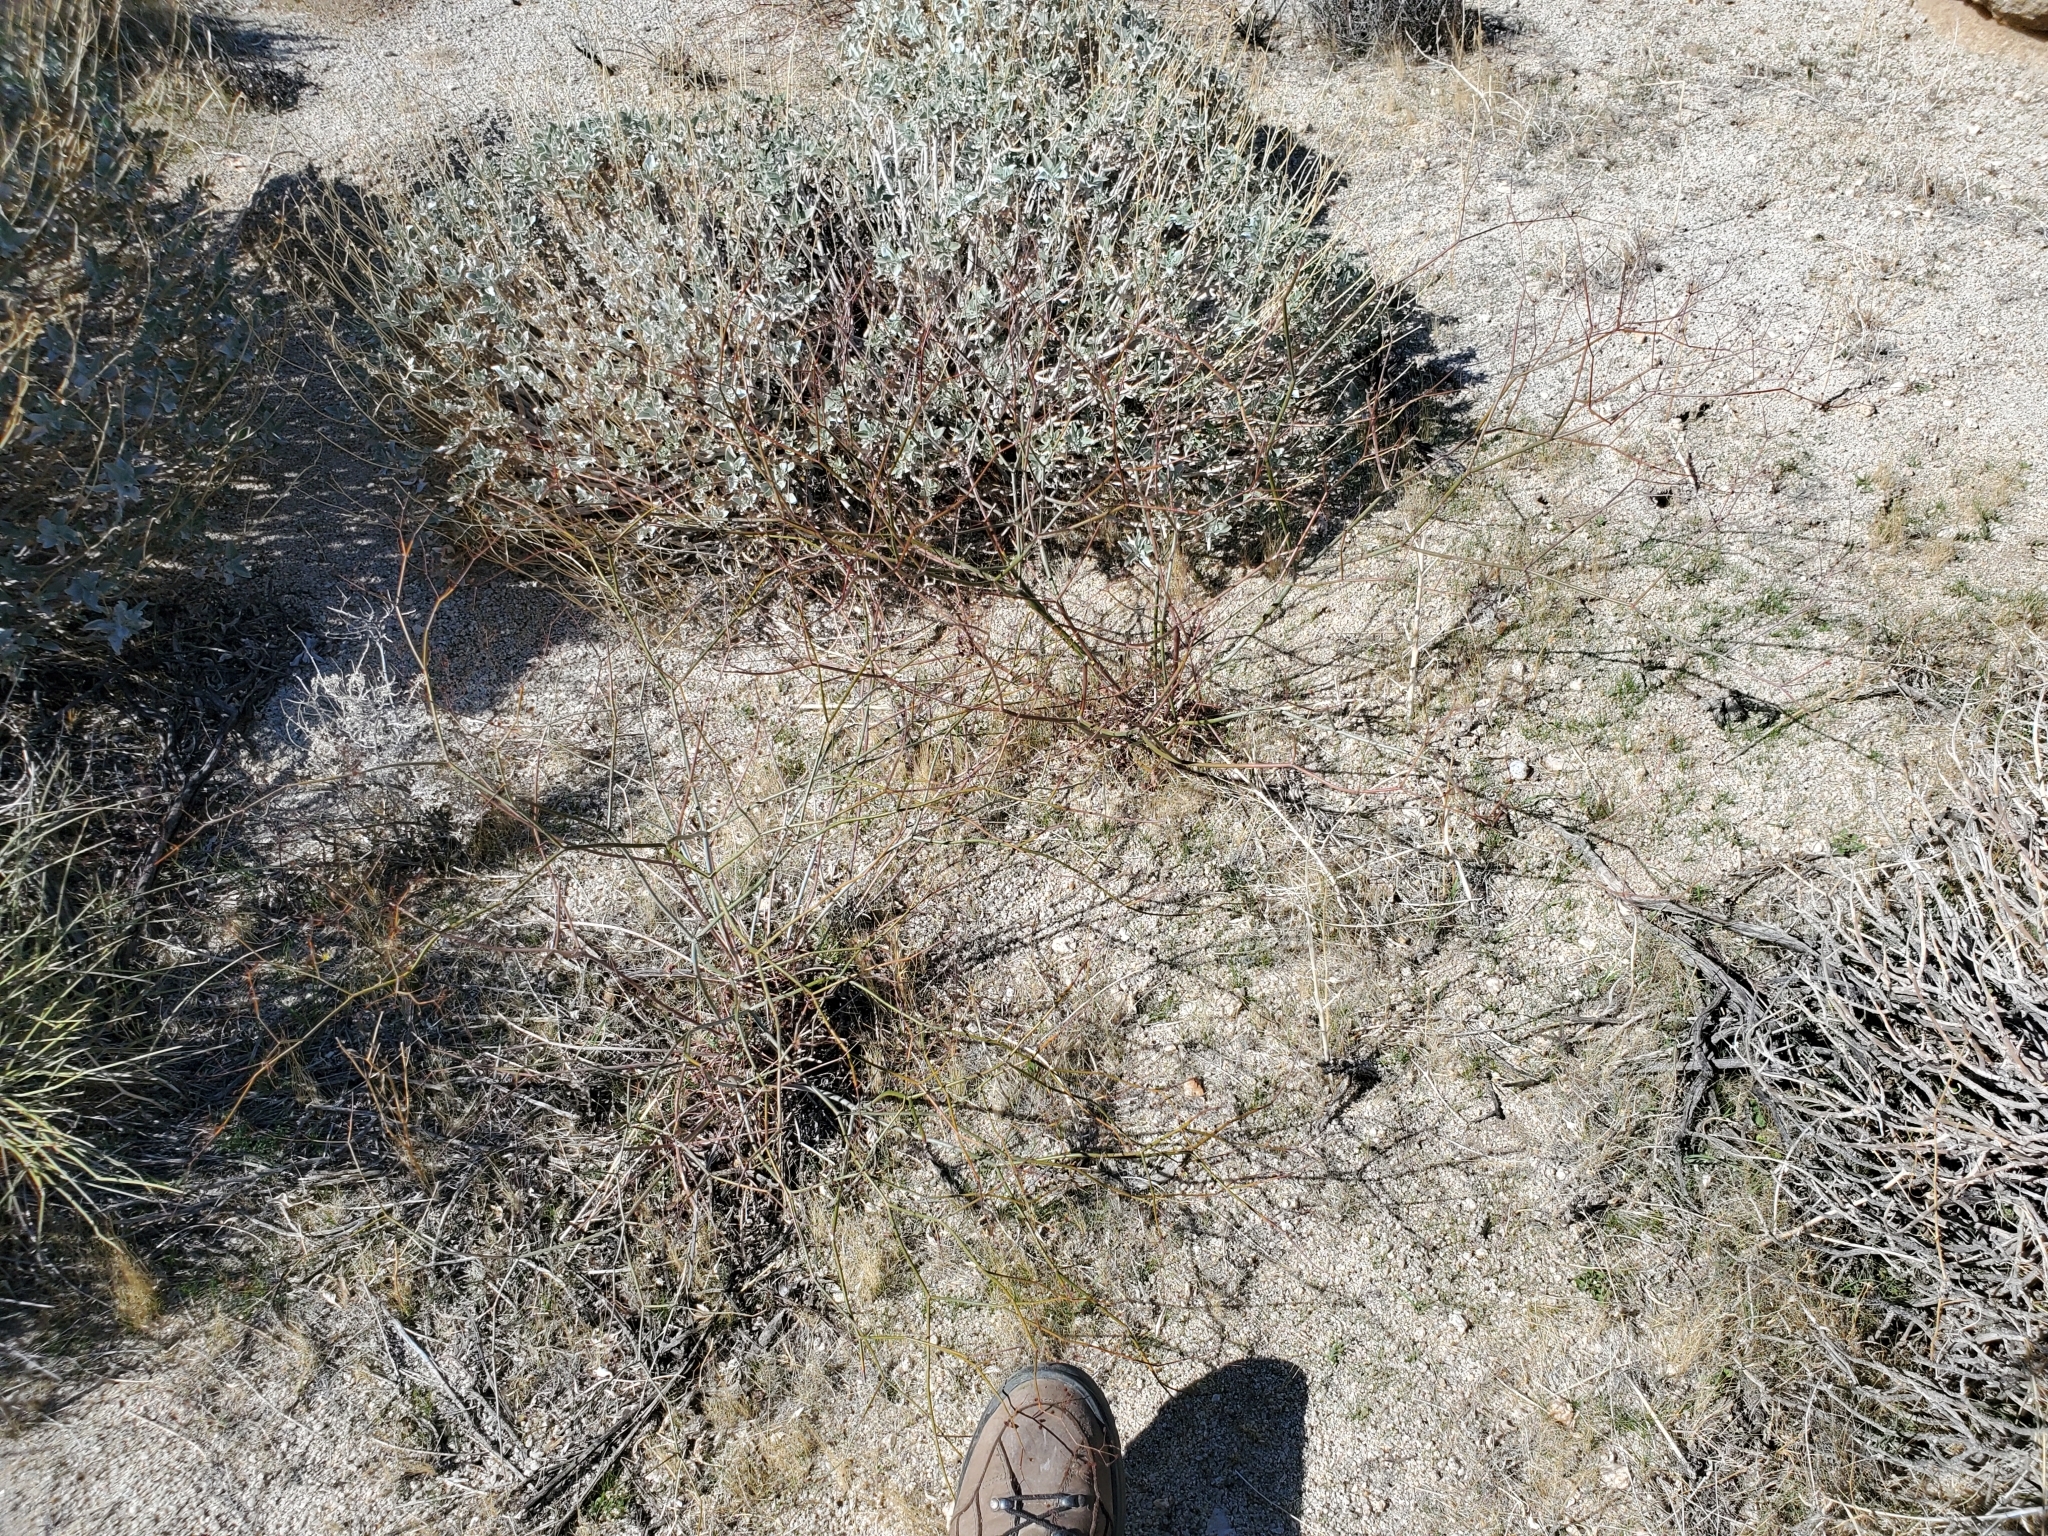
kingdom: Plantae
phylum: Tracheophyta
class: Magnoliopsida
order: Caryophyllales
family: Polygonaceae
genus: Eriogonum
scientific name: Eriogonum inflatum
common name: Desert trumpet
